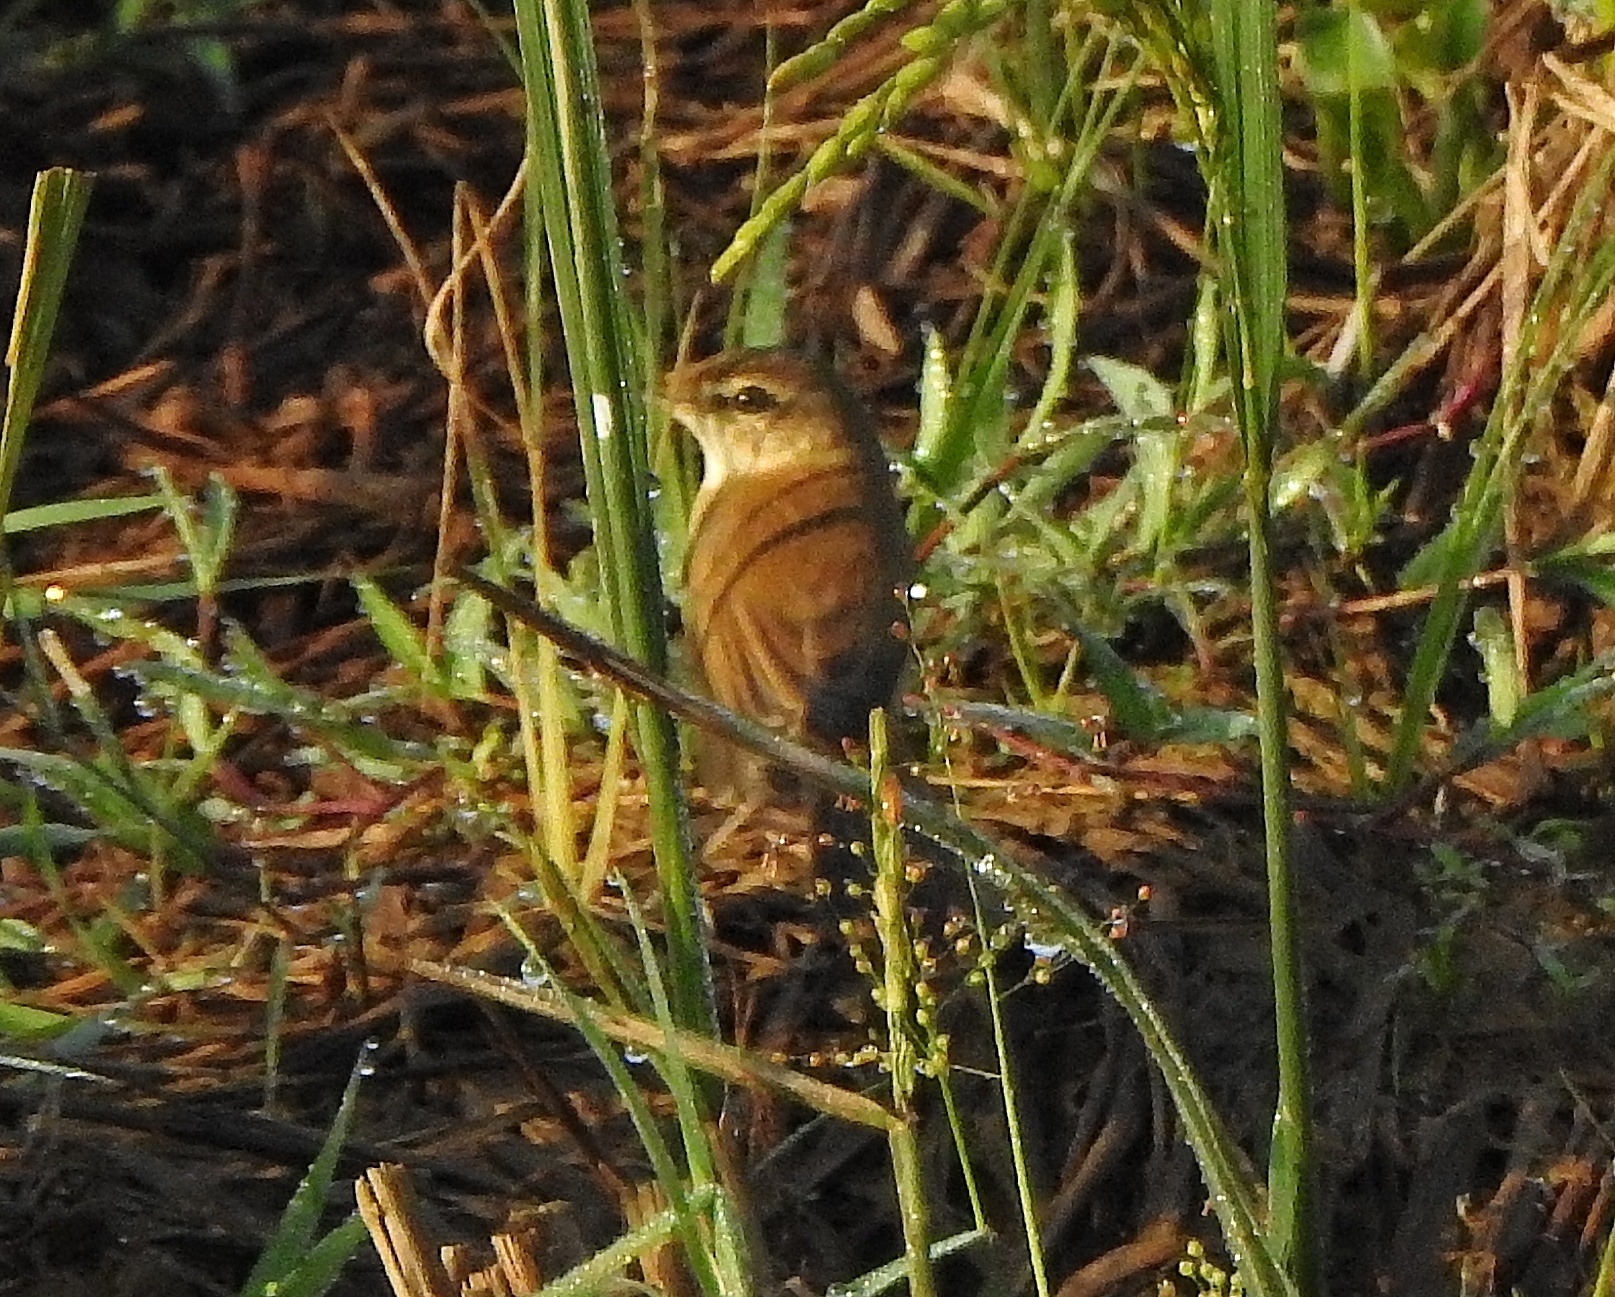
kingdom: Animalia
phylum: Chordata
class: Aves
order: Passeriformes
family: Acrocephalidae
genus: Acrocephalus
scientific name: Acrocephalus agricola
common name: Paddyfield warbler
